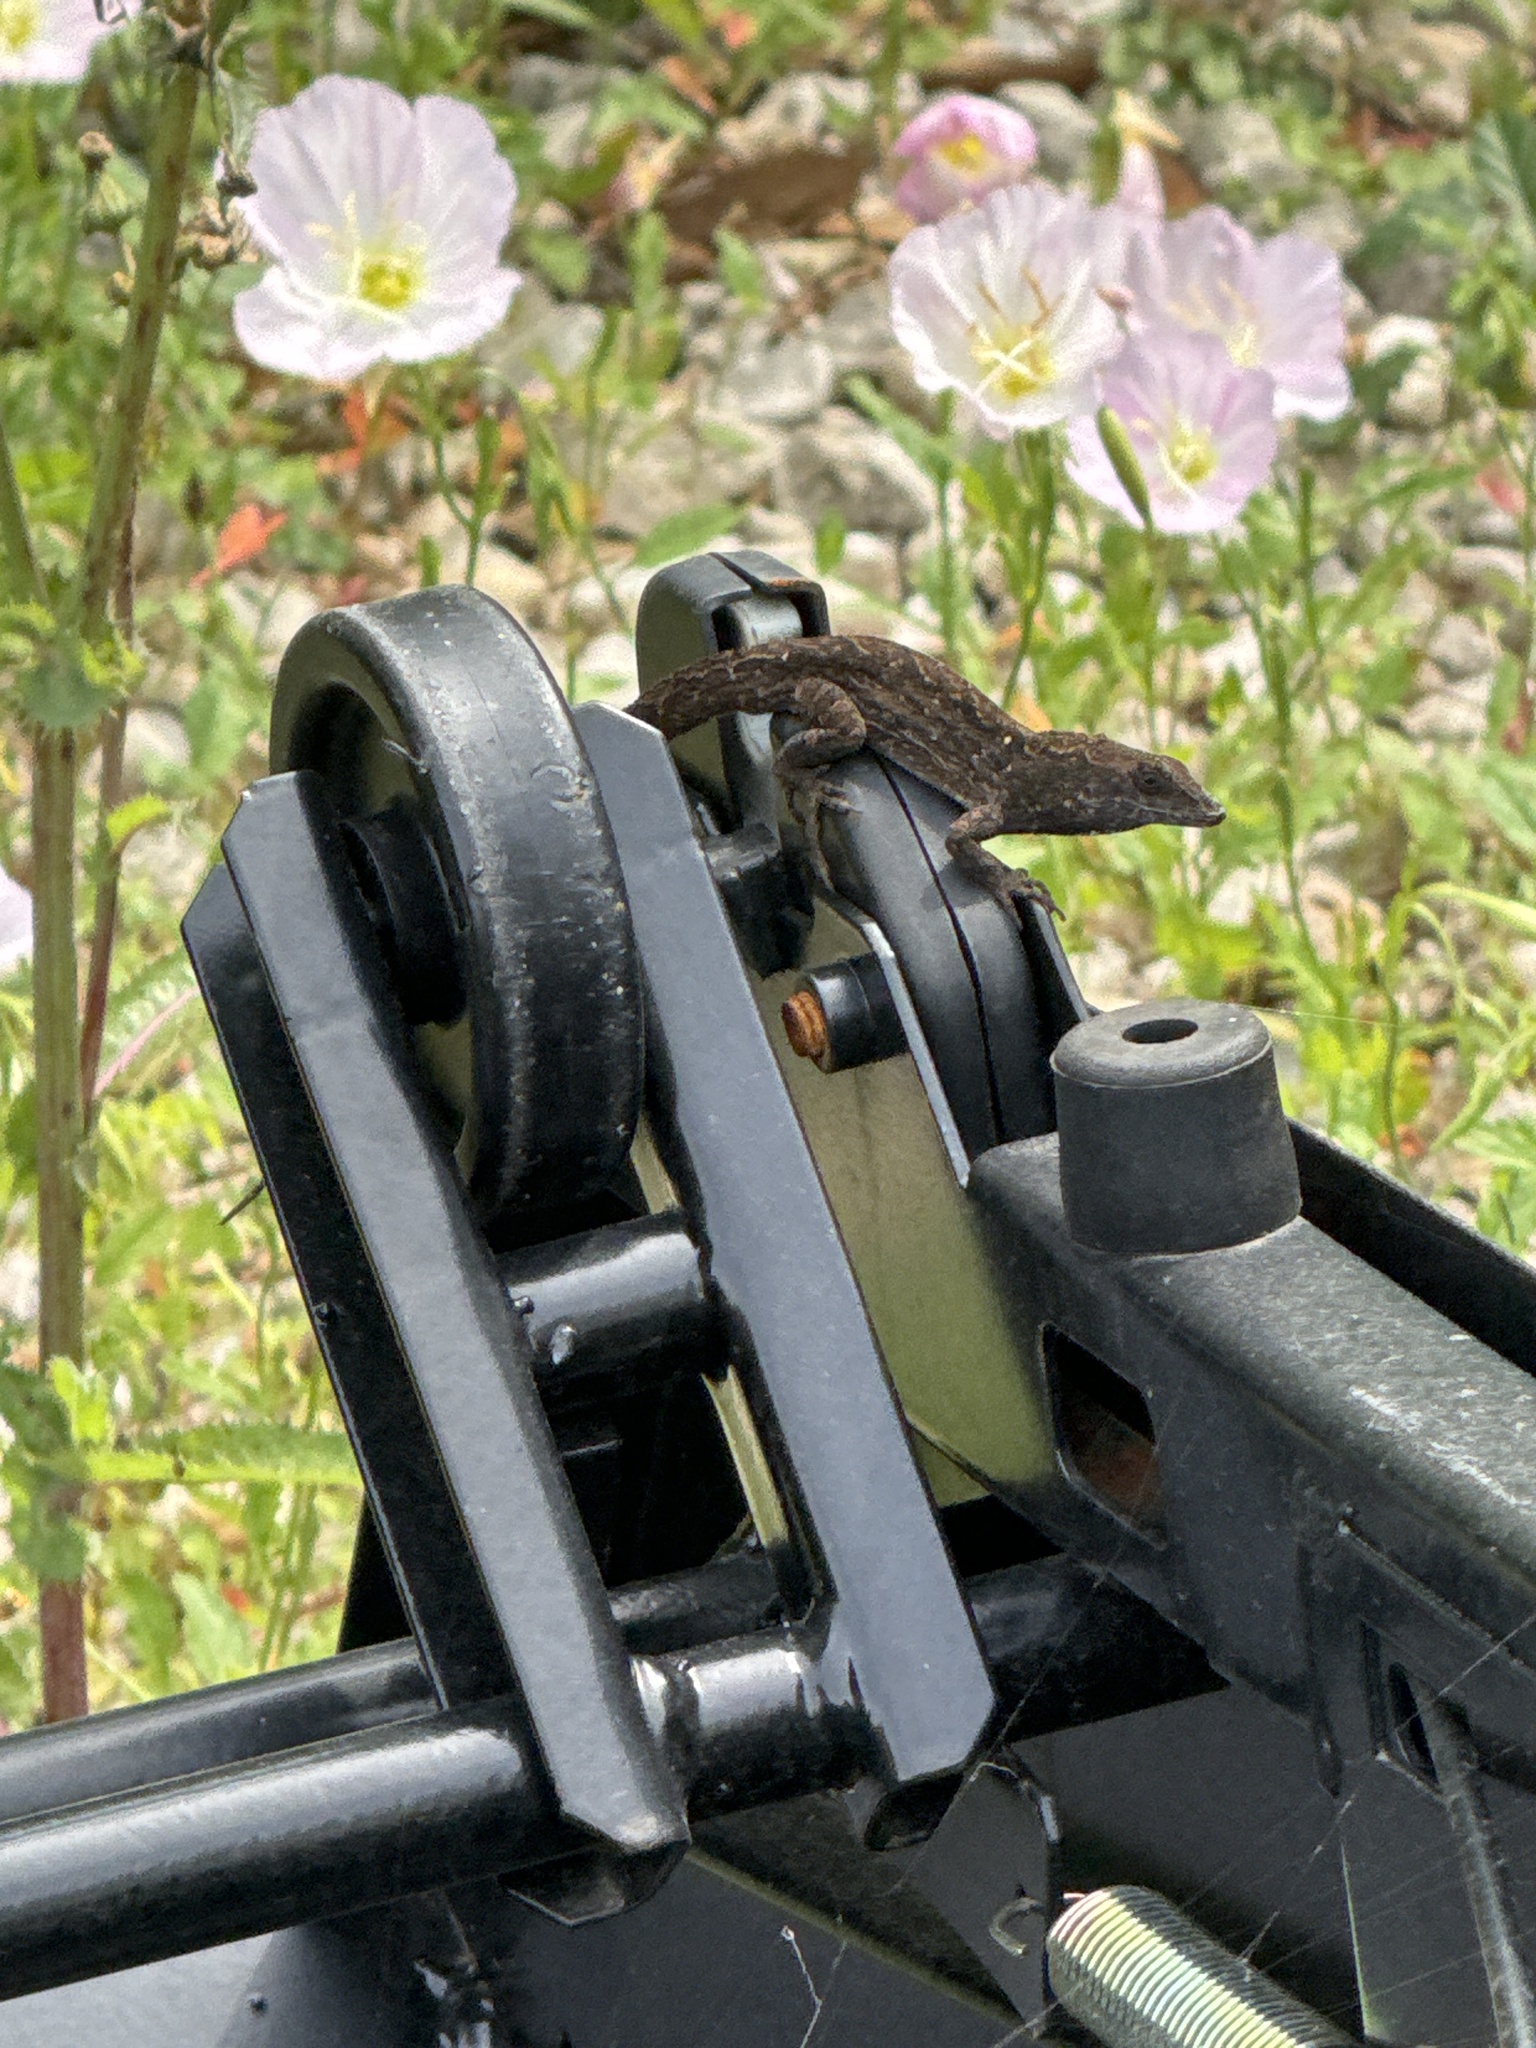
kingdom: Animalia
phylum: Chordata
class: Squamata
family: Dactyloidae
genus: Anolis
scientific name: Anolis sagrei
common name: Brown anole
